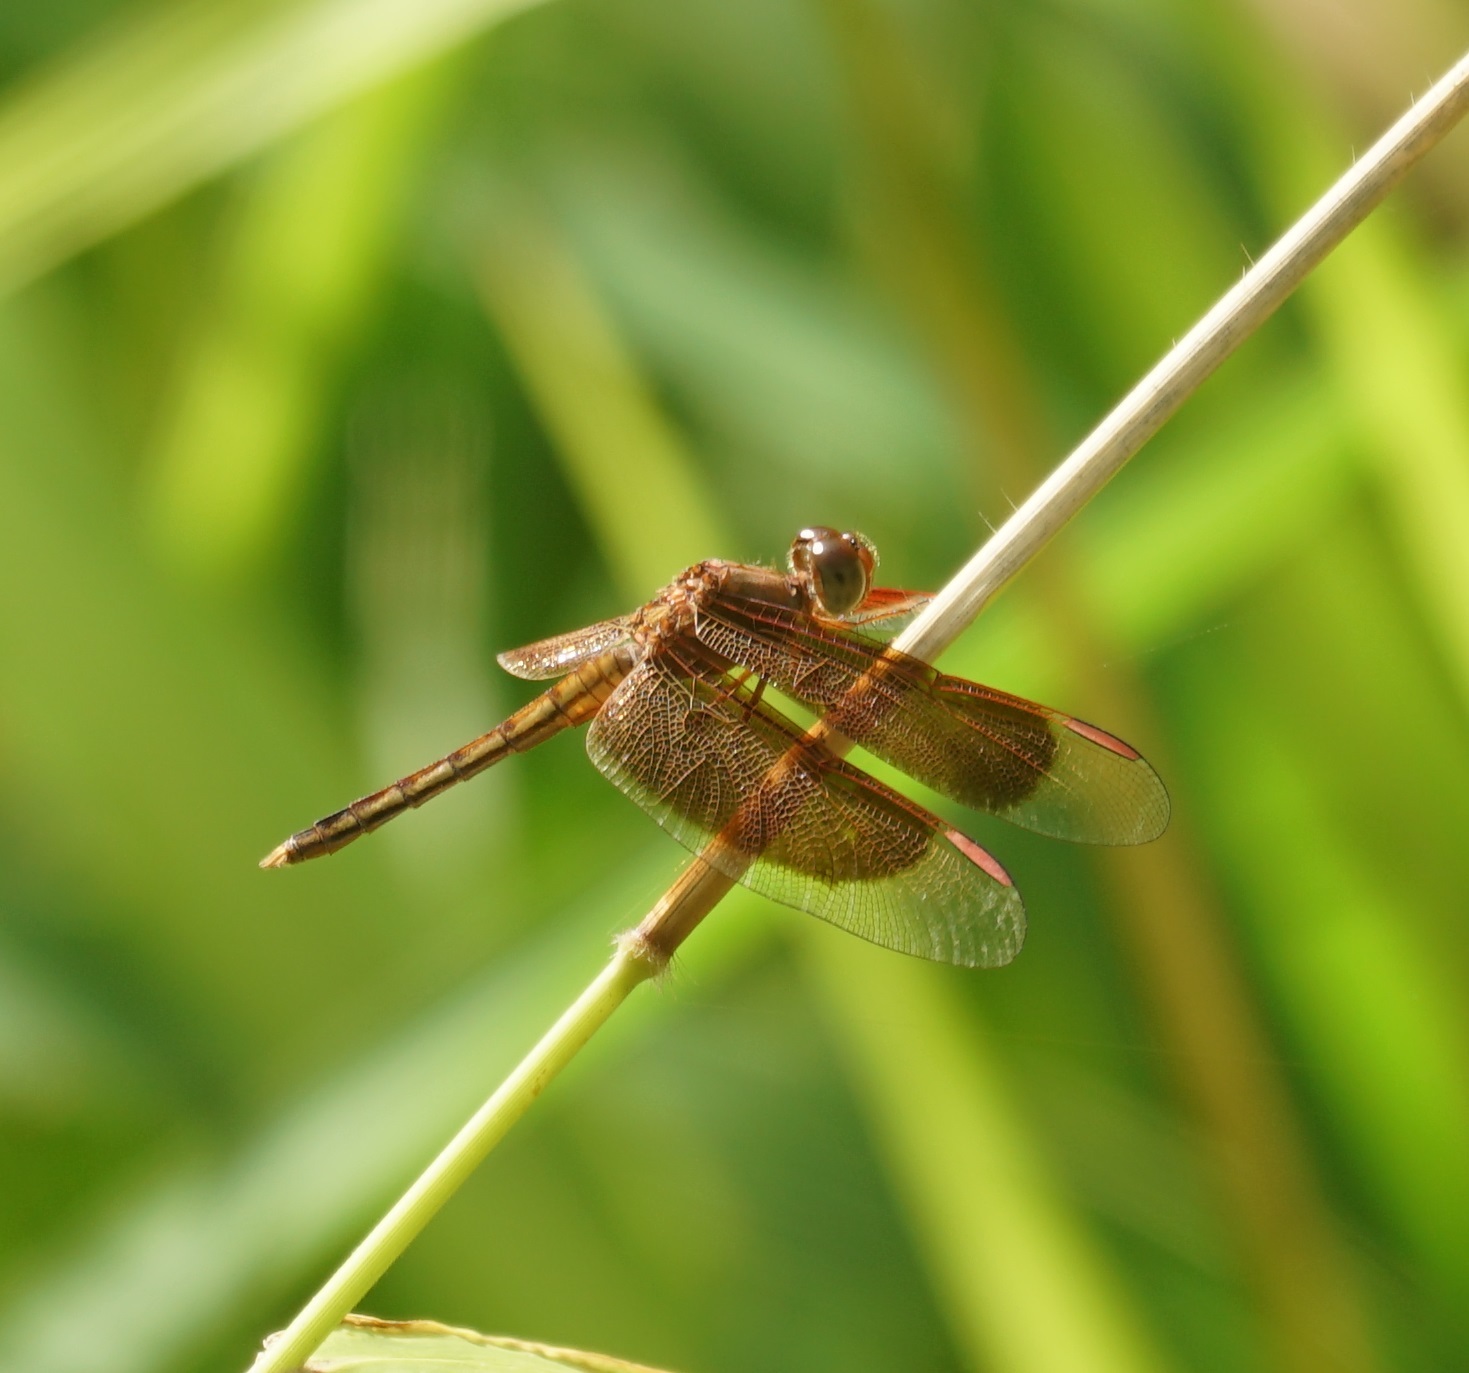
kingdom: Animalia
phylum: Arthropoda
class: Insecta
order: Odonata
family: Libellulidae
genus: Neurothemis
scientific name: Neurothemis stigmatizans
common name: Painted grasshawk
